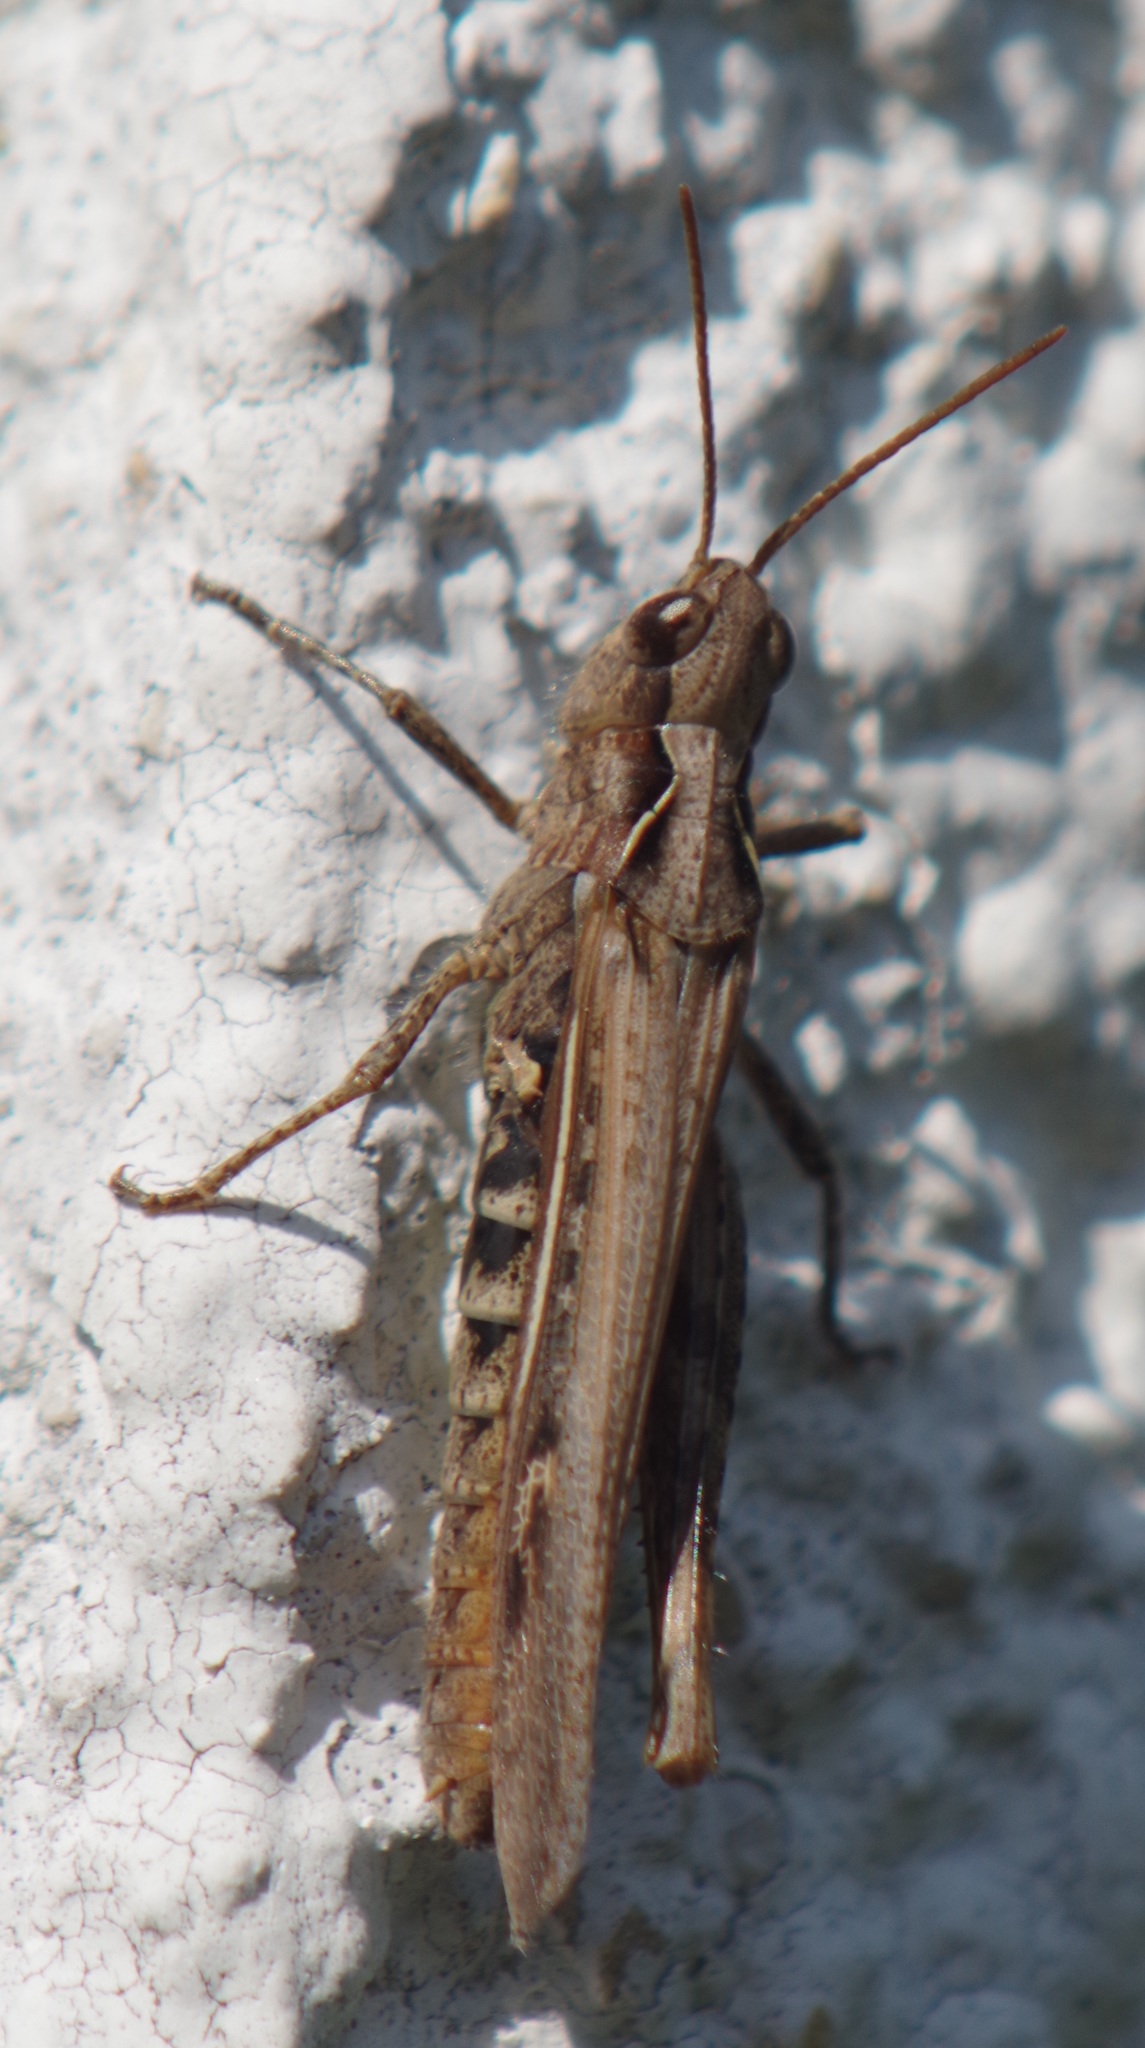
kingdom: Animalia
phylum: Arthropoda
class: Insecta
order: Orthoptera
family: Acrididae
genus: Chorthippus
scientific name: Chorthippus brunneus
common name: Field grasshopper
